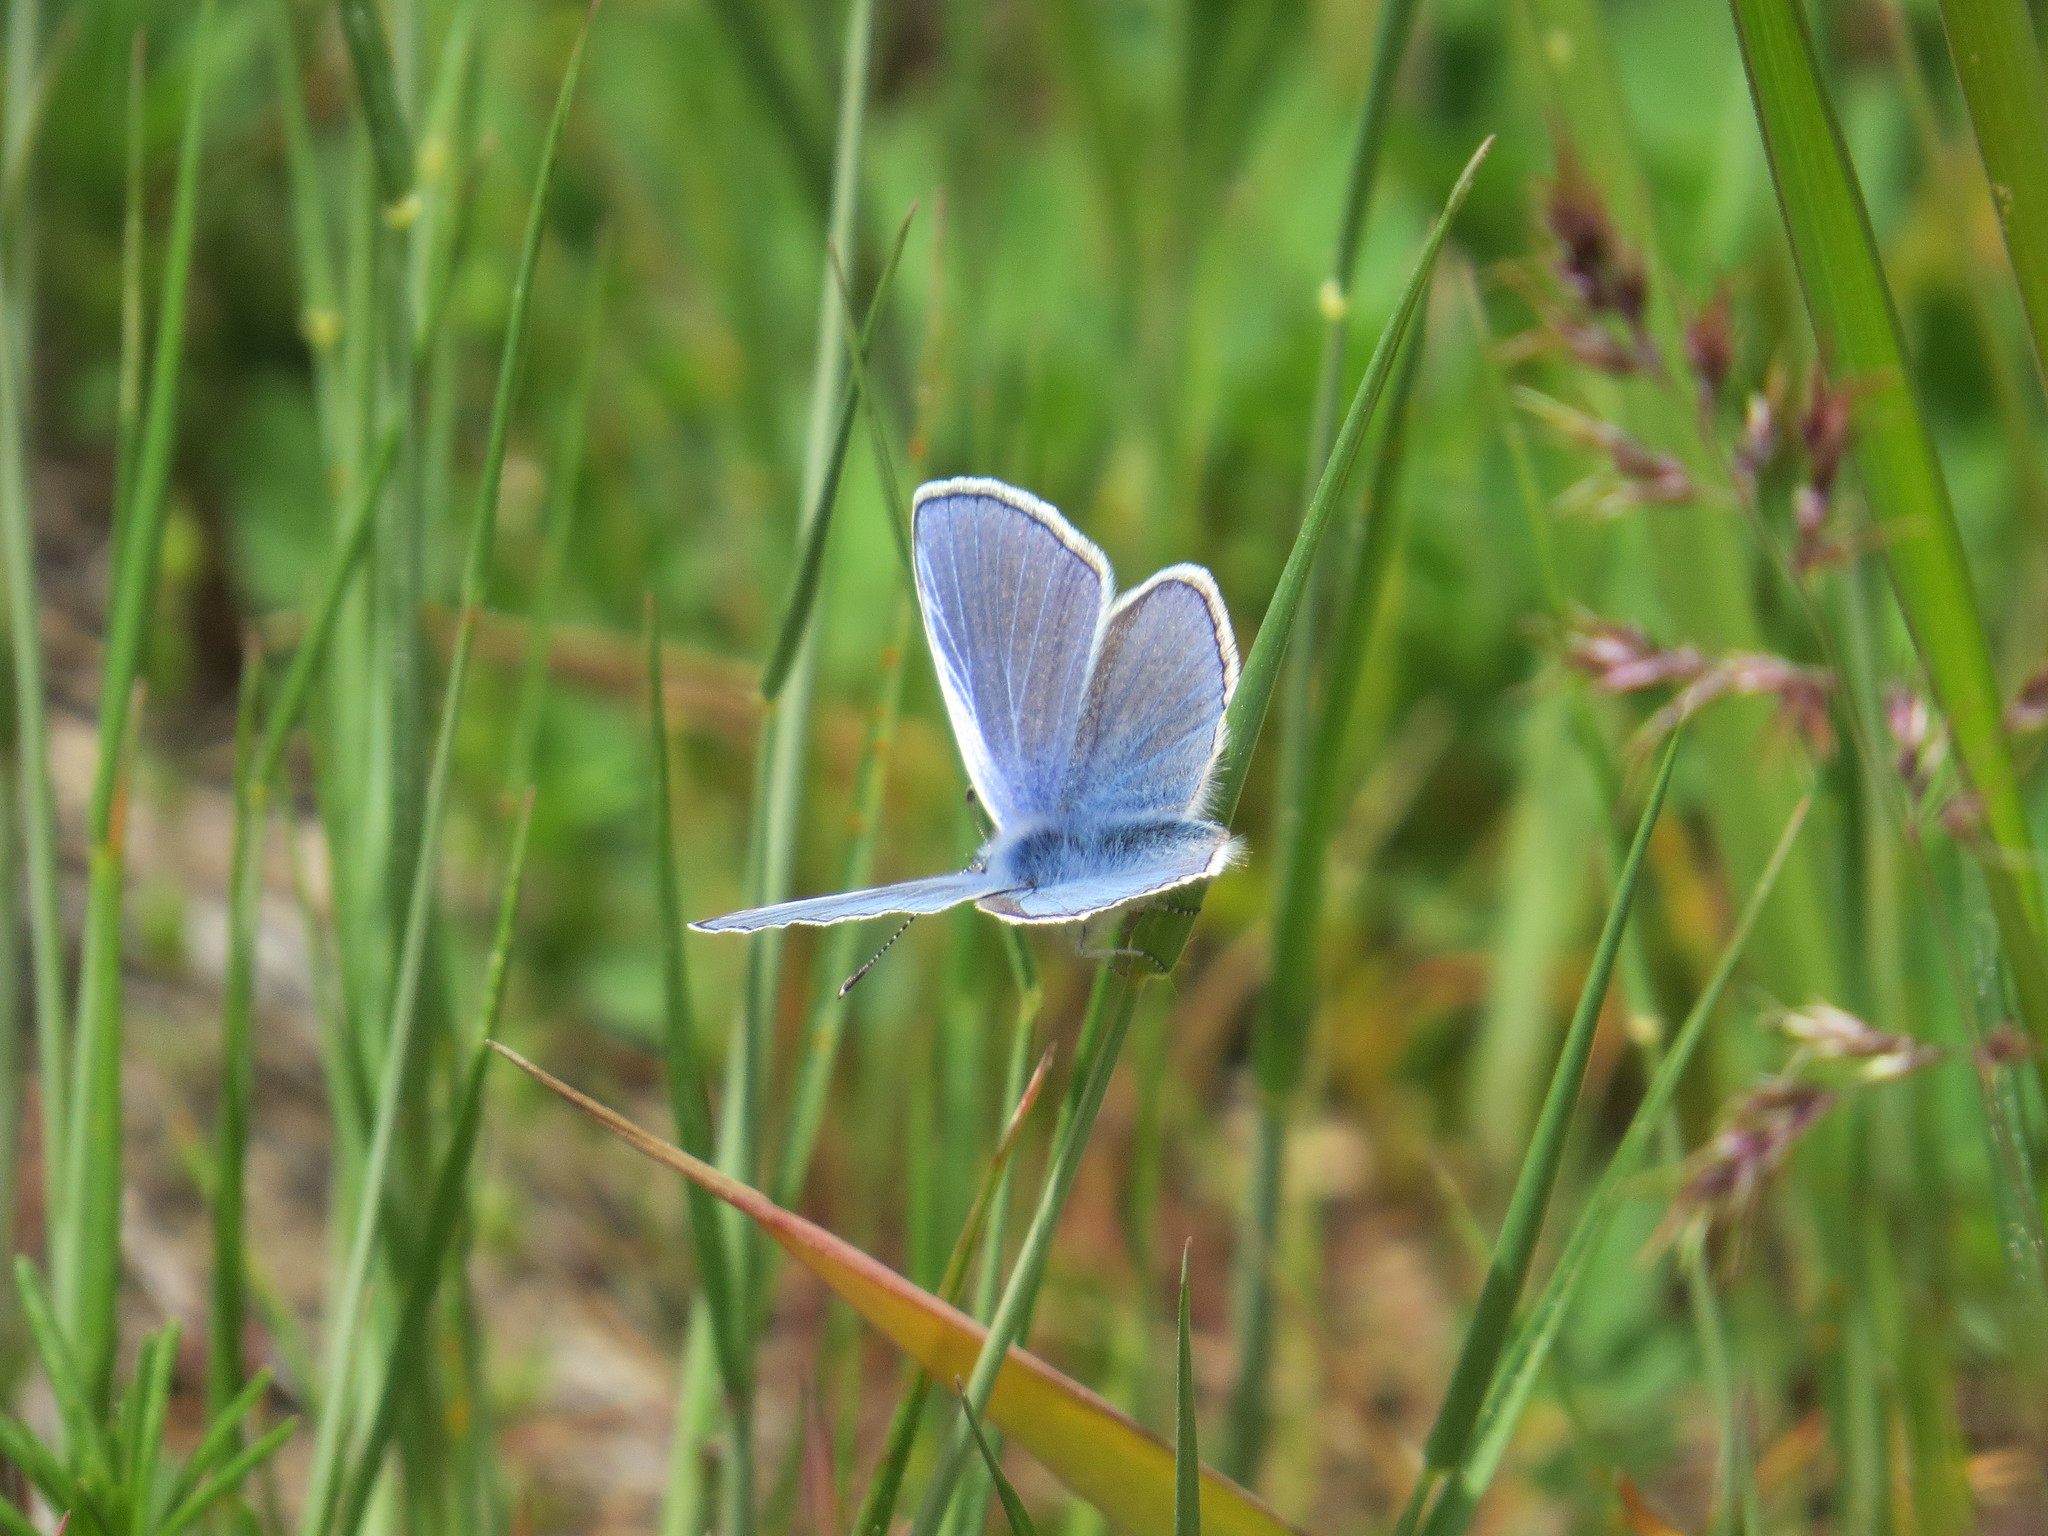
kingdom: Animalia
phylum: Arthropoda
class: Insecta
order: Lepidoptera
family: Lycaenidae
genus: Polyommatus
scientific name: Polyommatus
